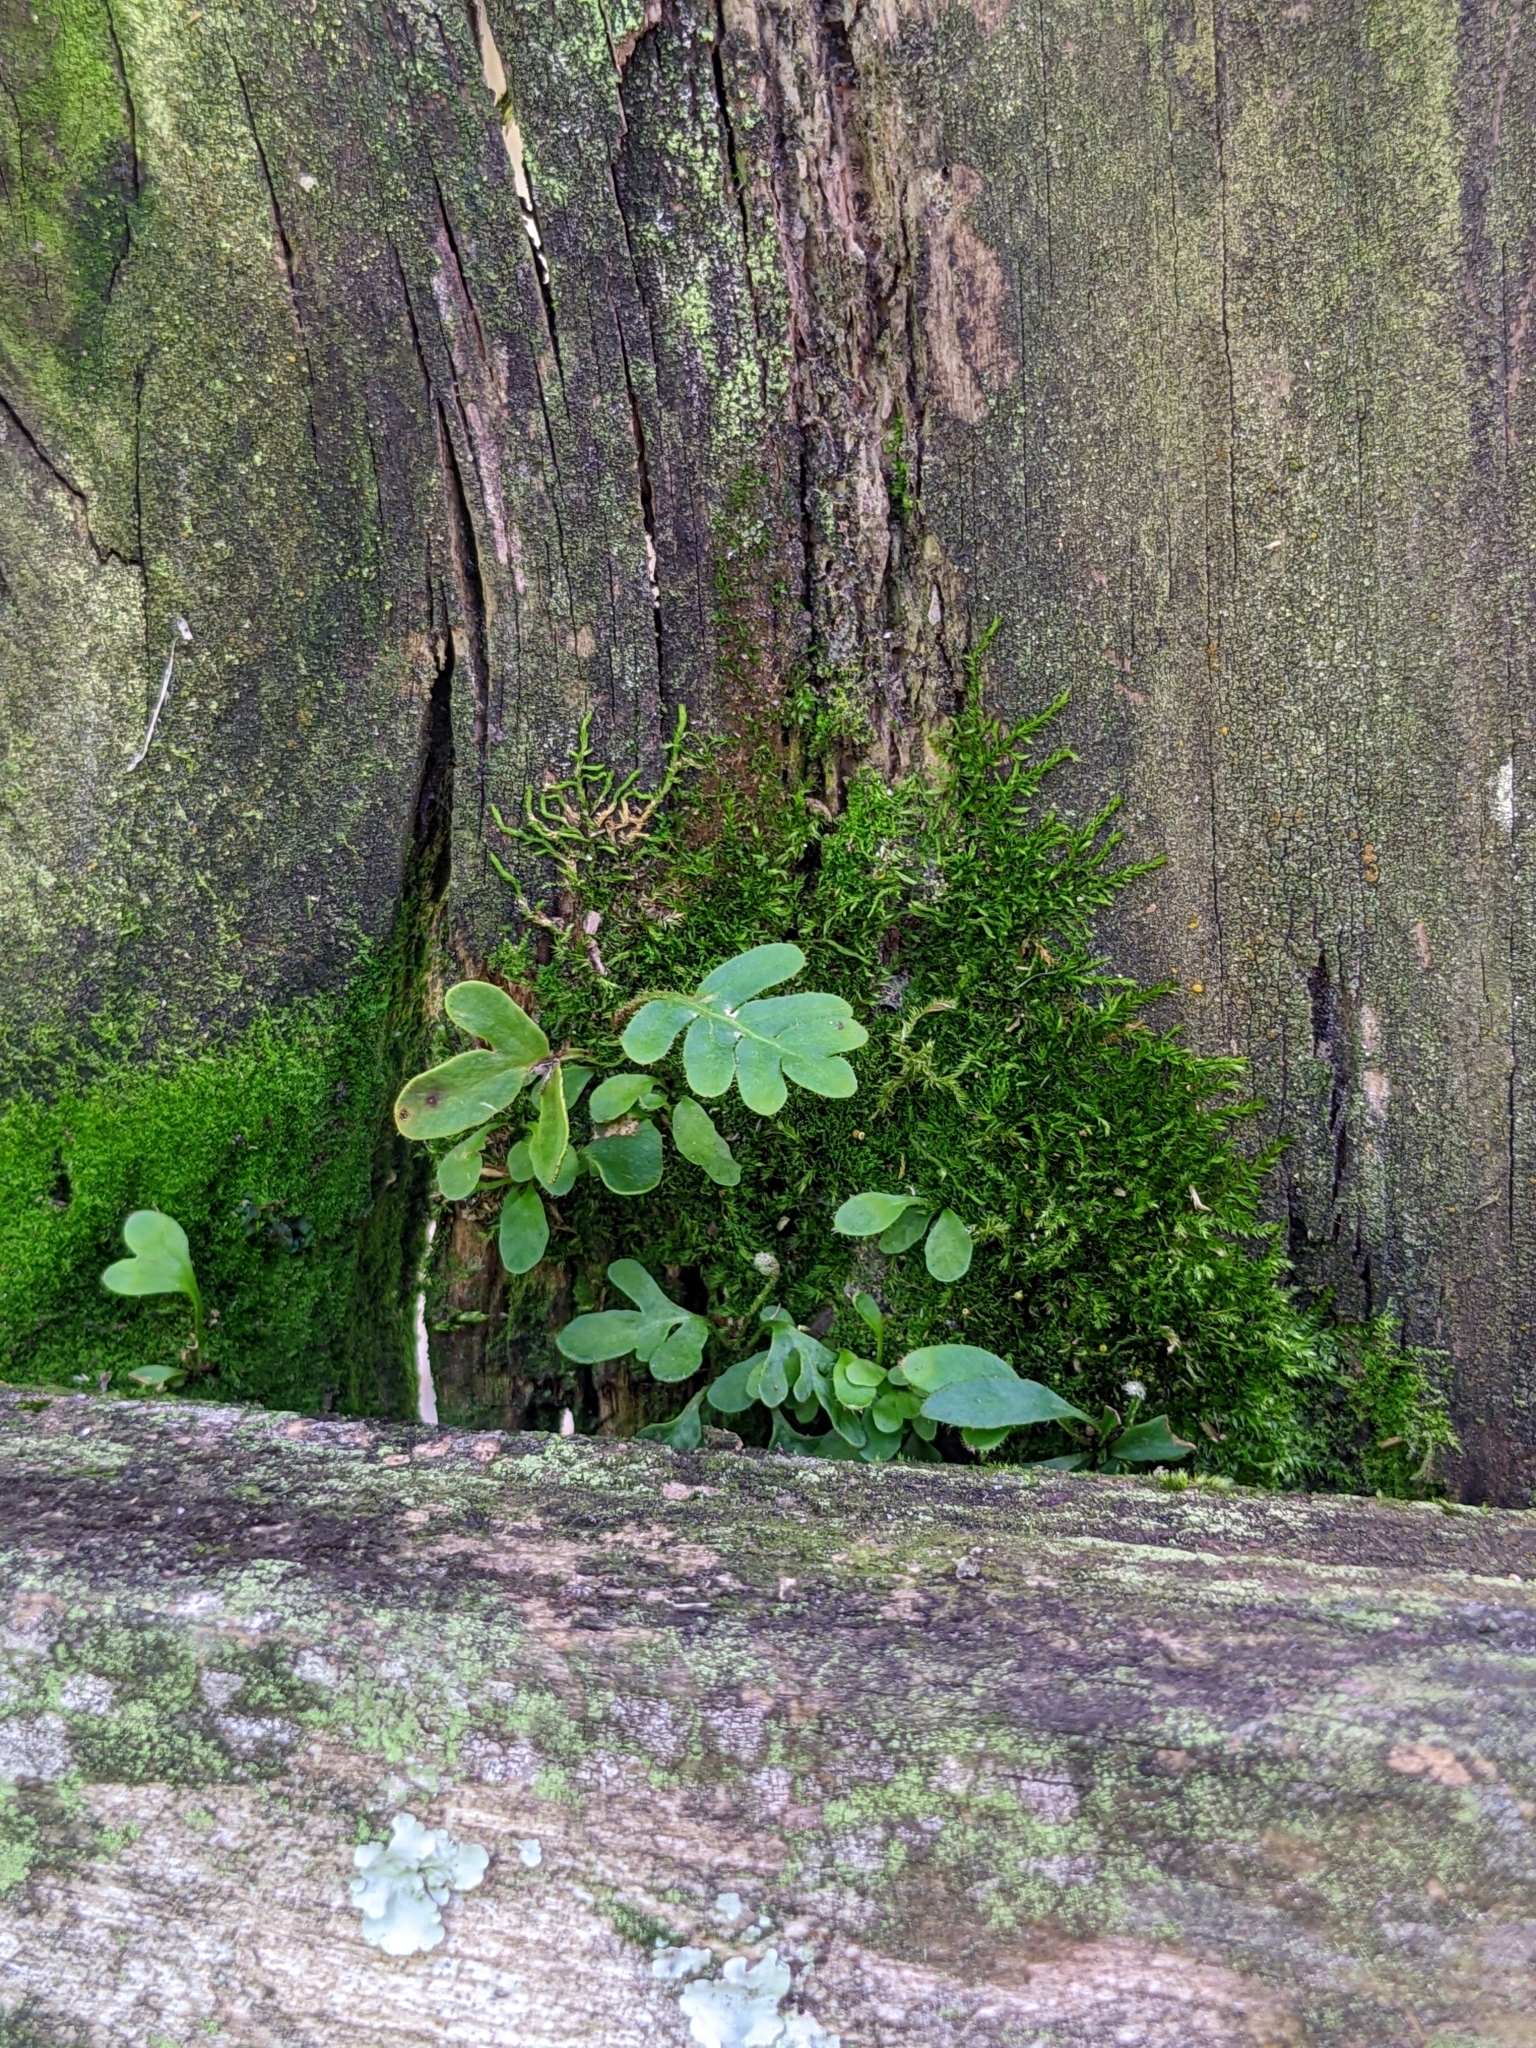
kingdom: Plantae
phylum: Tracheophyta
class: Polypodiopsida
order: Polypodiales
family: Polypodiaceae
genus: Pleopeltis
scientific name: Pleopeltis michauxiana
